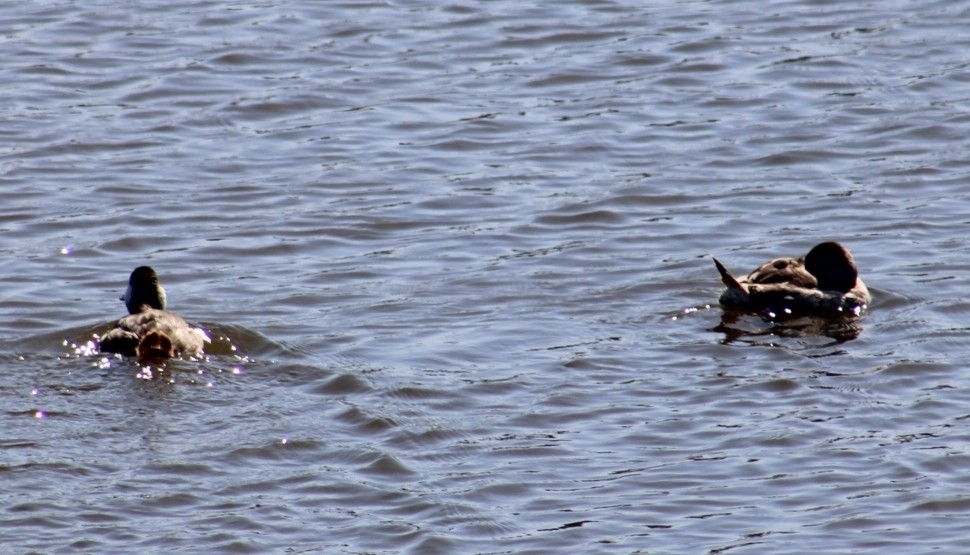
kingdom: Animalia
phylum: Chordata
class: Aves
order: Anseriformes
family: Anatidae
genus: Oxyura
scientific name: Oxyura jamaicensis
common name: Ruddy duck
